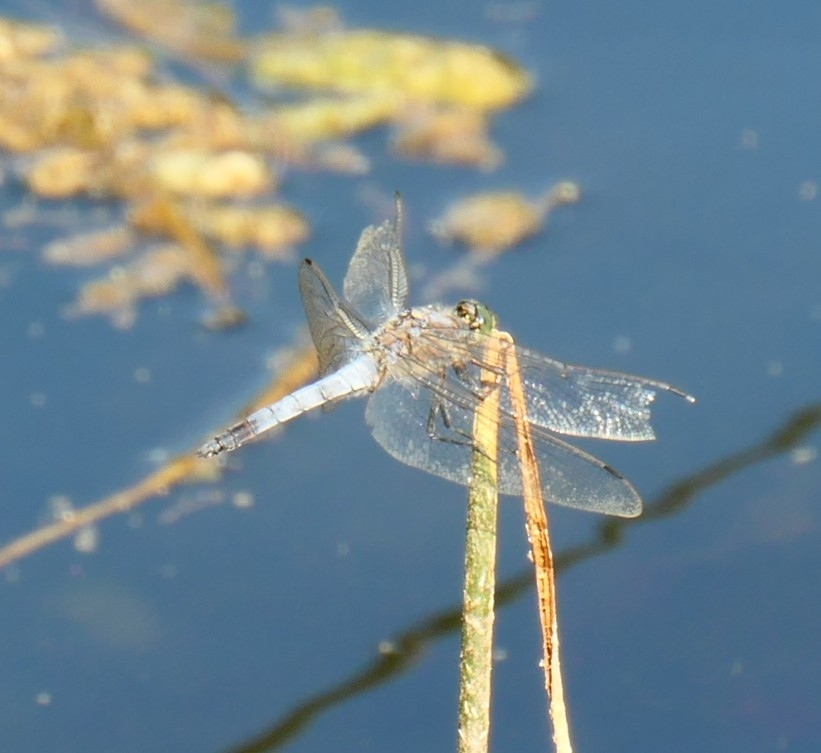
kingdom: Animalia
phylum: Arthropoda
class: Insecta
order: Odonata
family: Libellulidae
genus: Orthetrum
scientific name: Orthetrum cancellatum
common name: Black-tailed skimmer
